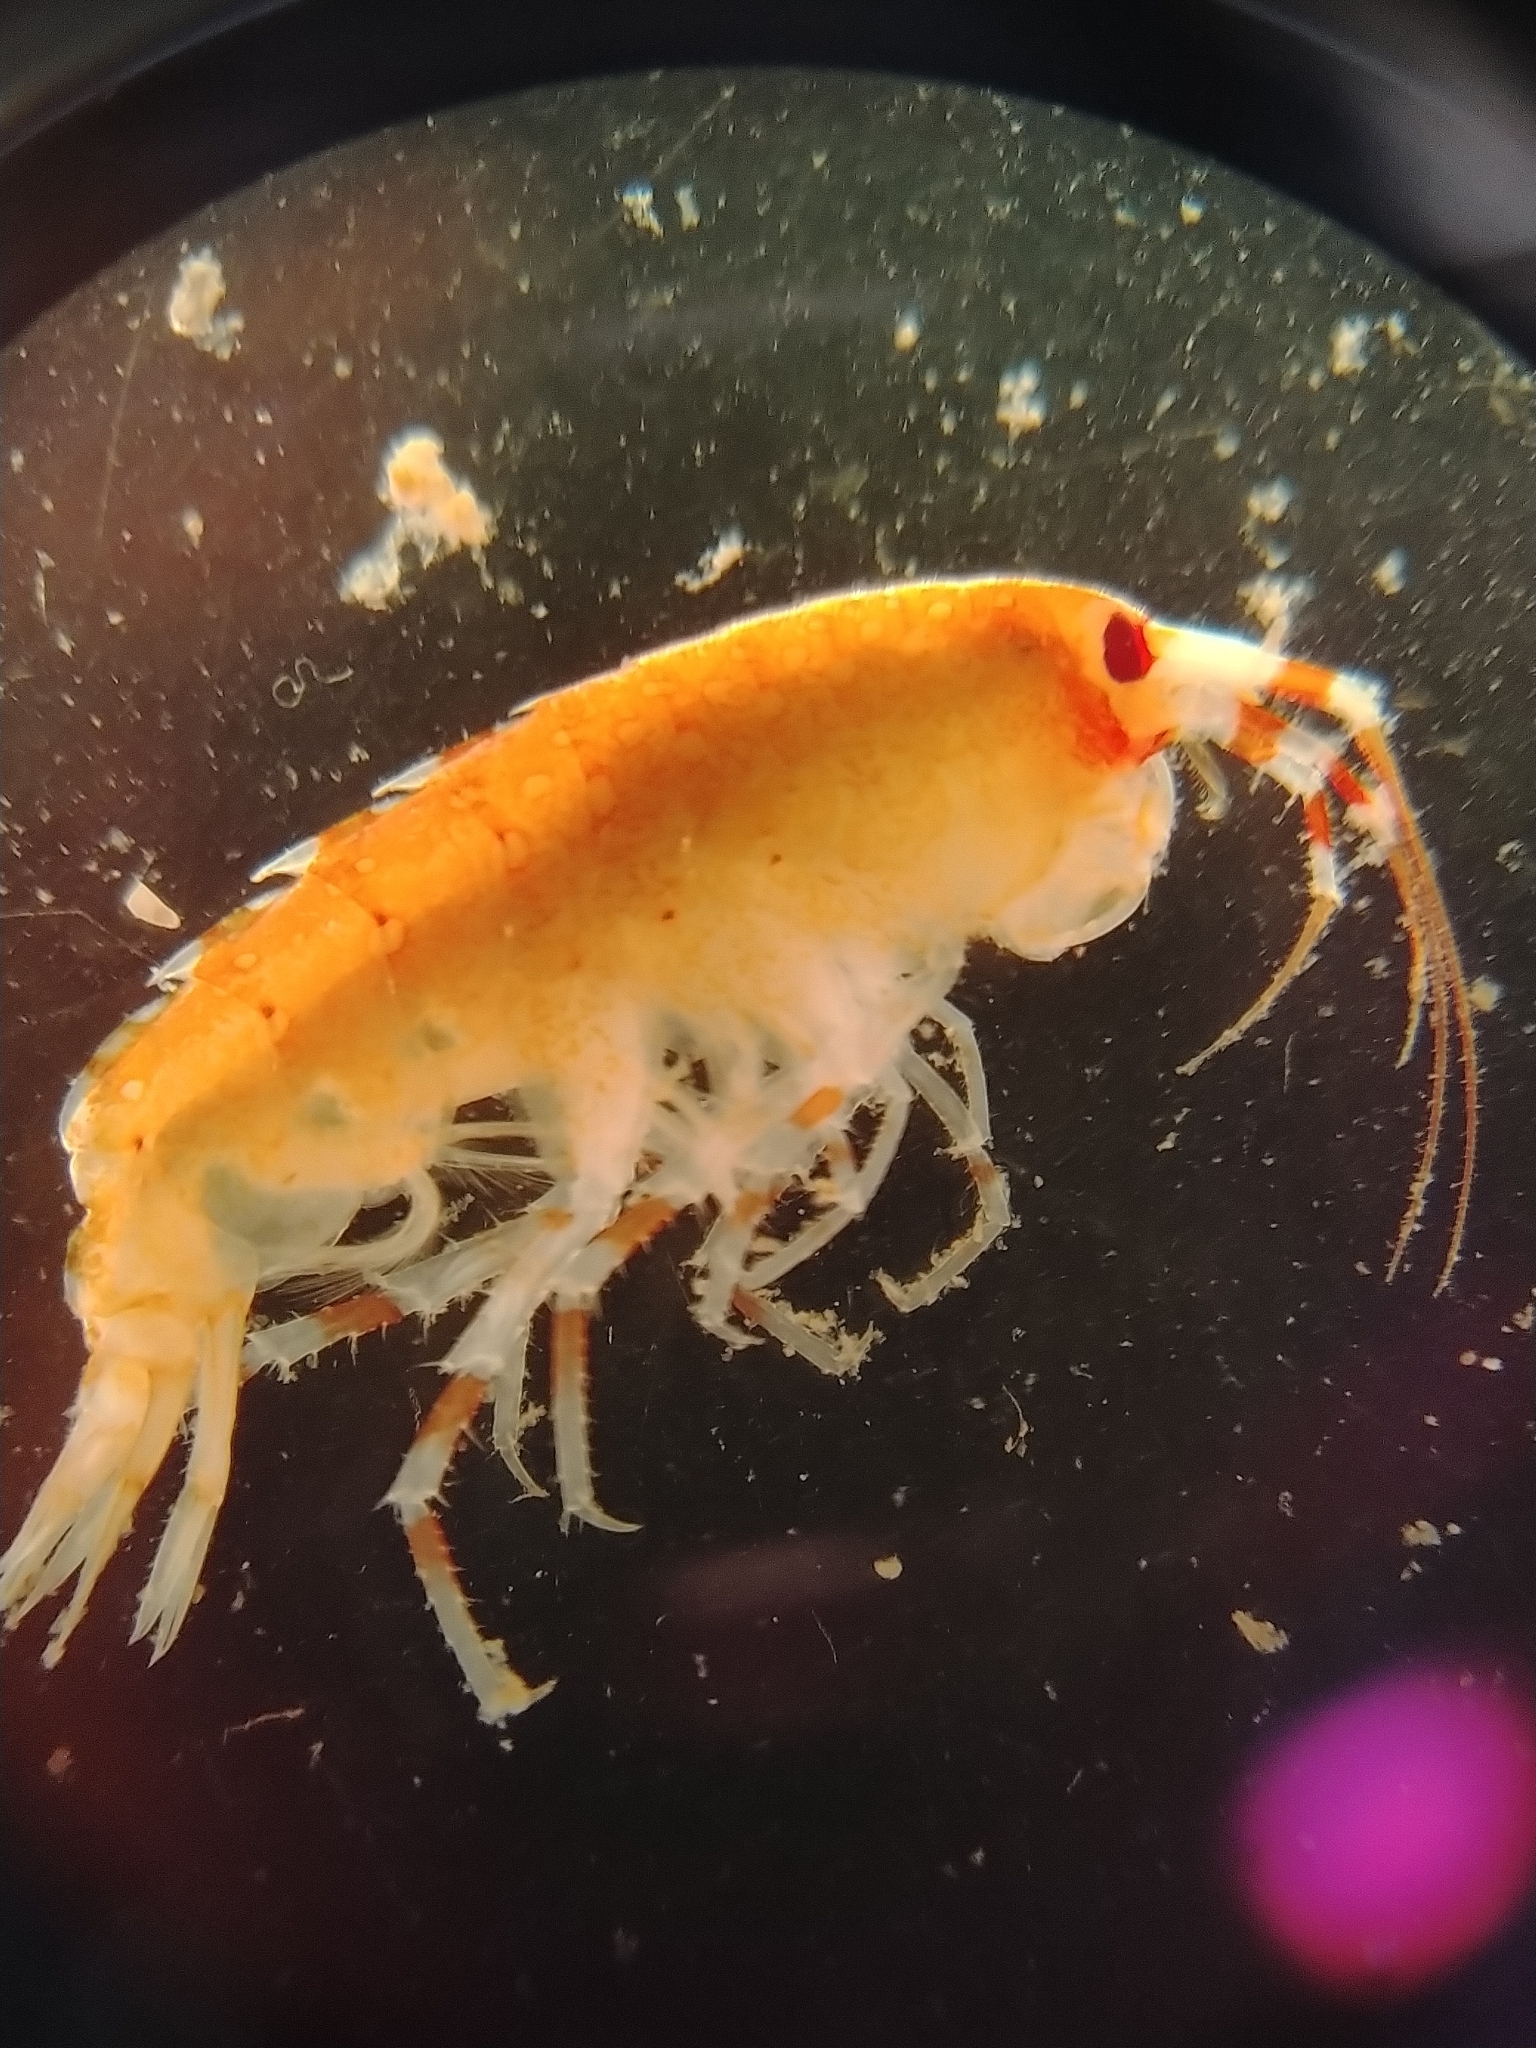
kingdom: Animalia
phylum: Arthropoda
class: Malacostraca
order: Amphipoda
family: Eusiridae
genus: Eusirus
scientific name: Eusirus cuspidatus
